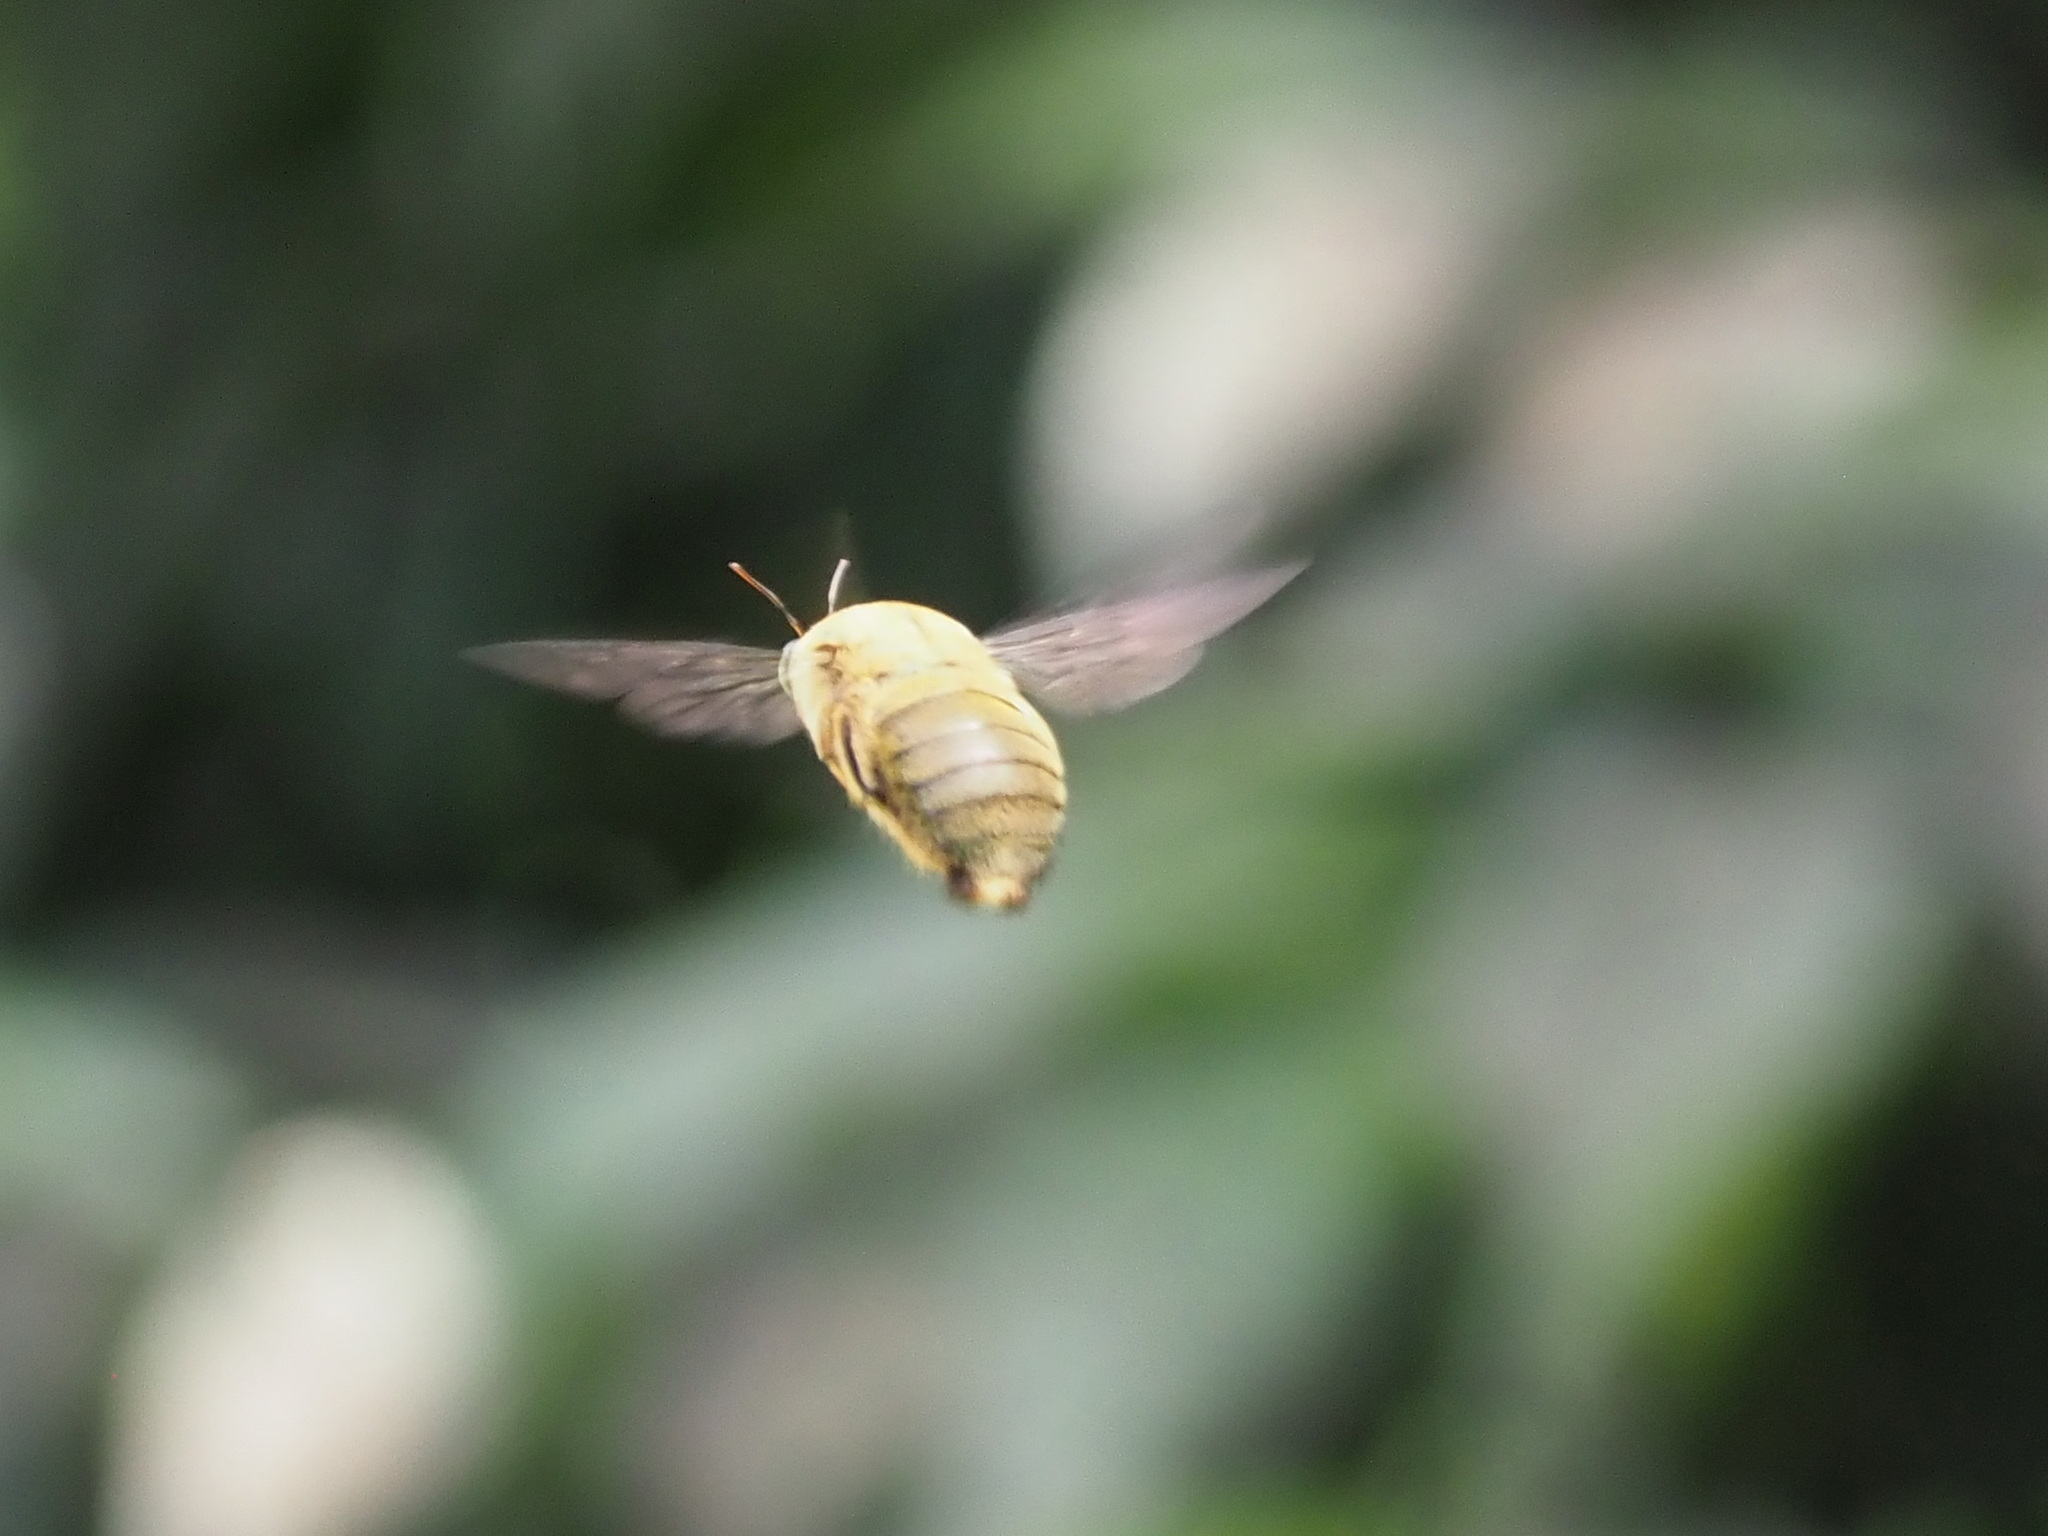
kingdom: Animalia
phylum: Arthropoda
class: Insecta
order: Hymenoptera
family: Apidae
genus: Xylocopa
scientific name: Xylocopa aestuans
